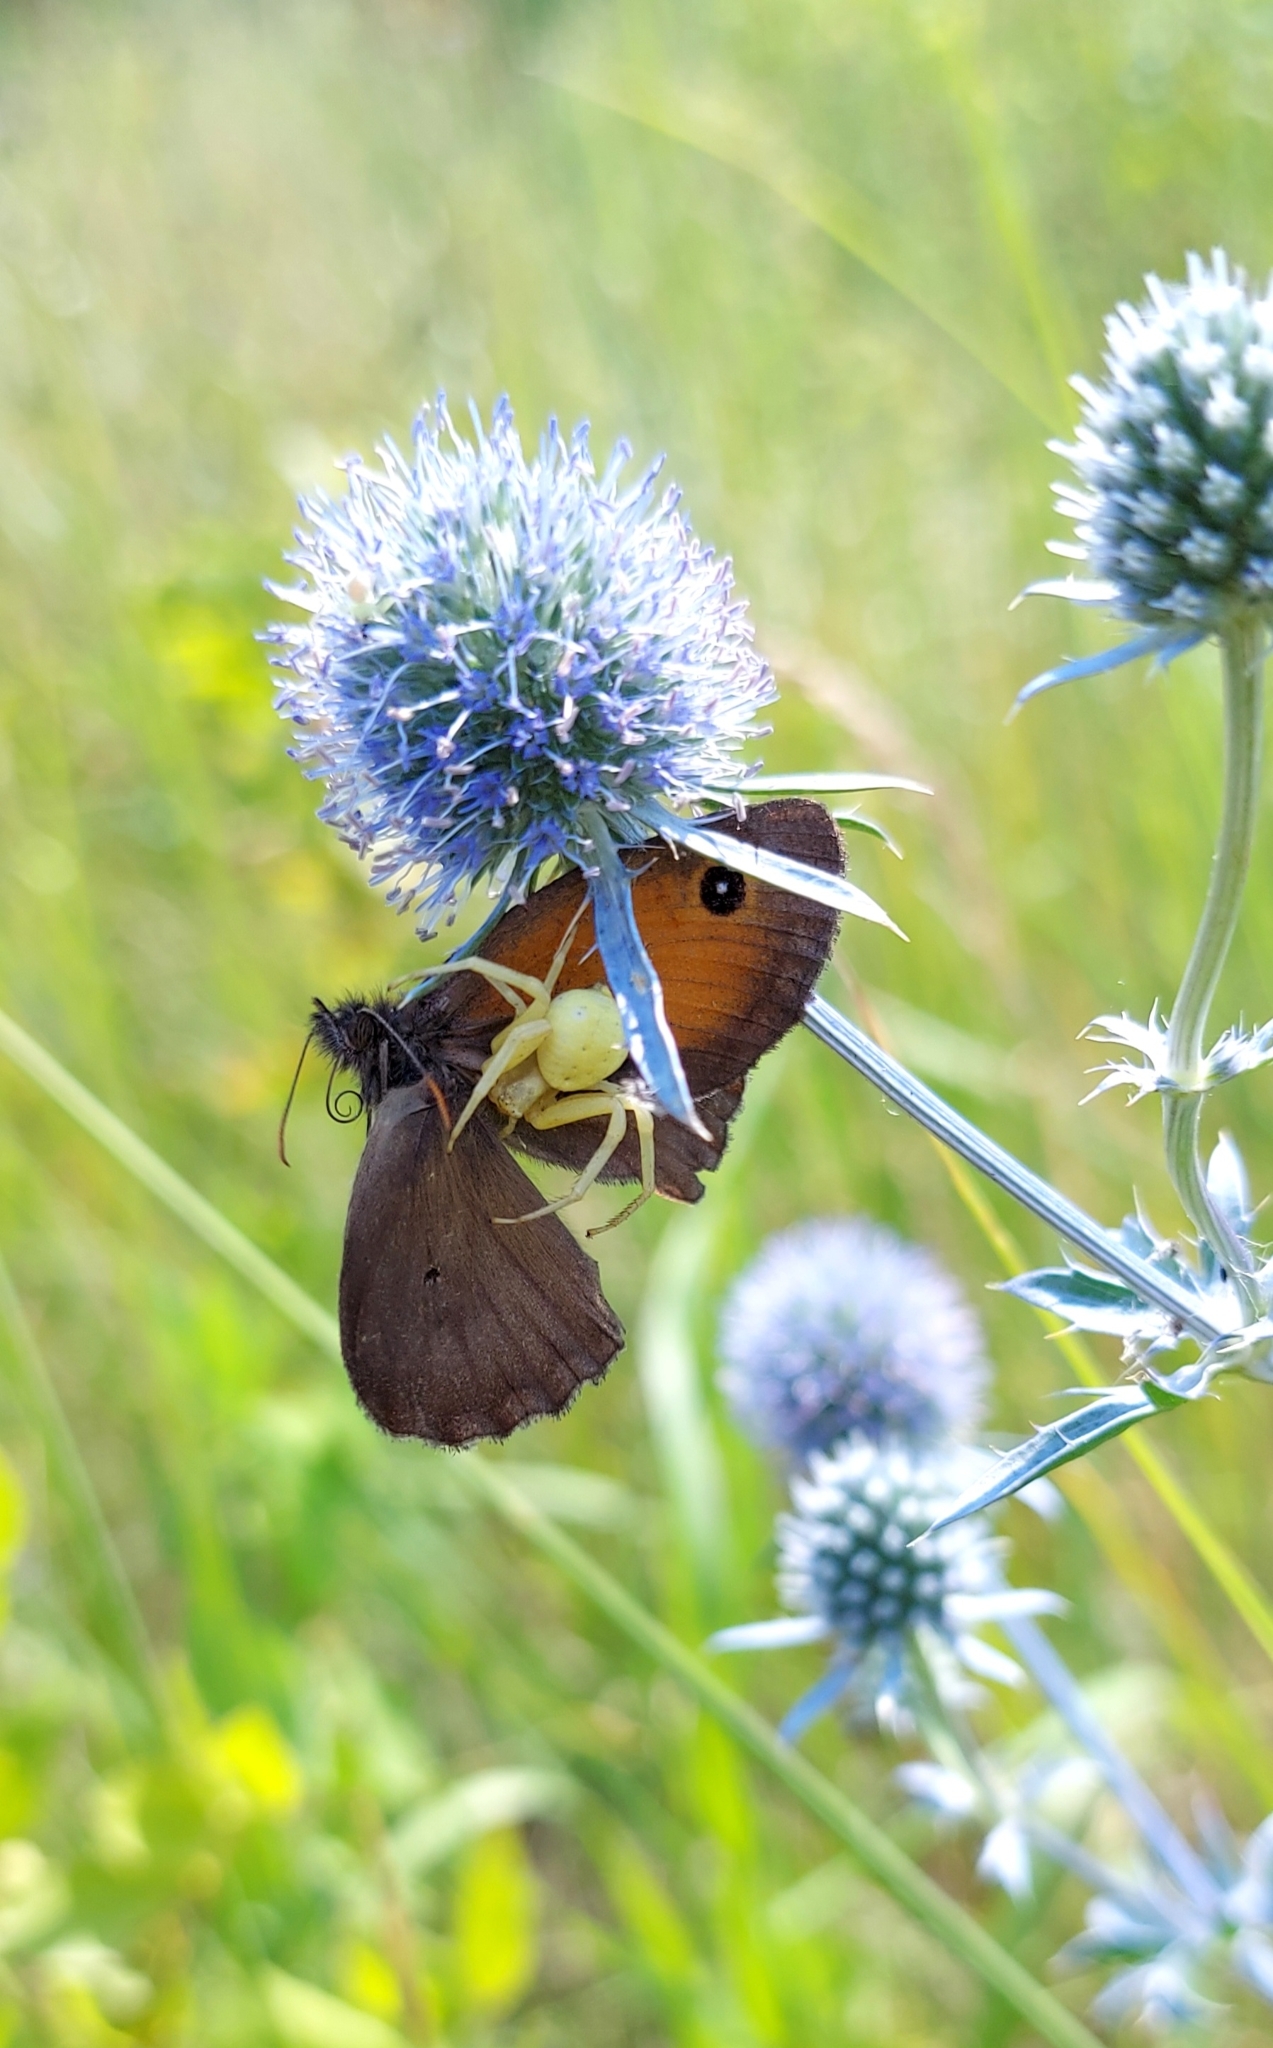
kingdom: Animalia
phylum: Arthropoda
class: Arachnida
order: Araneae
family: Thomisidae
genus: Misumena
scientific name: Misumena vatia
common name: Goldenrod crab spider
